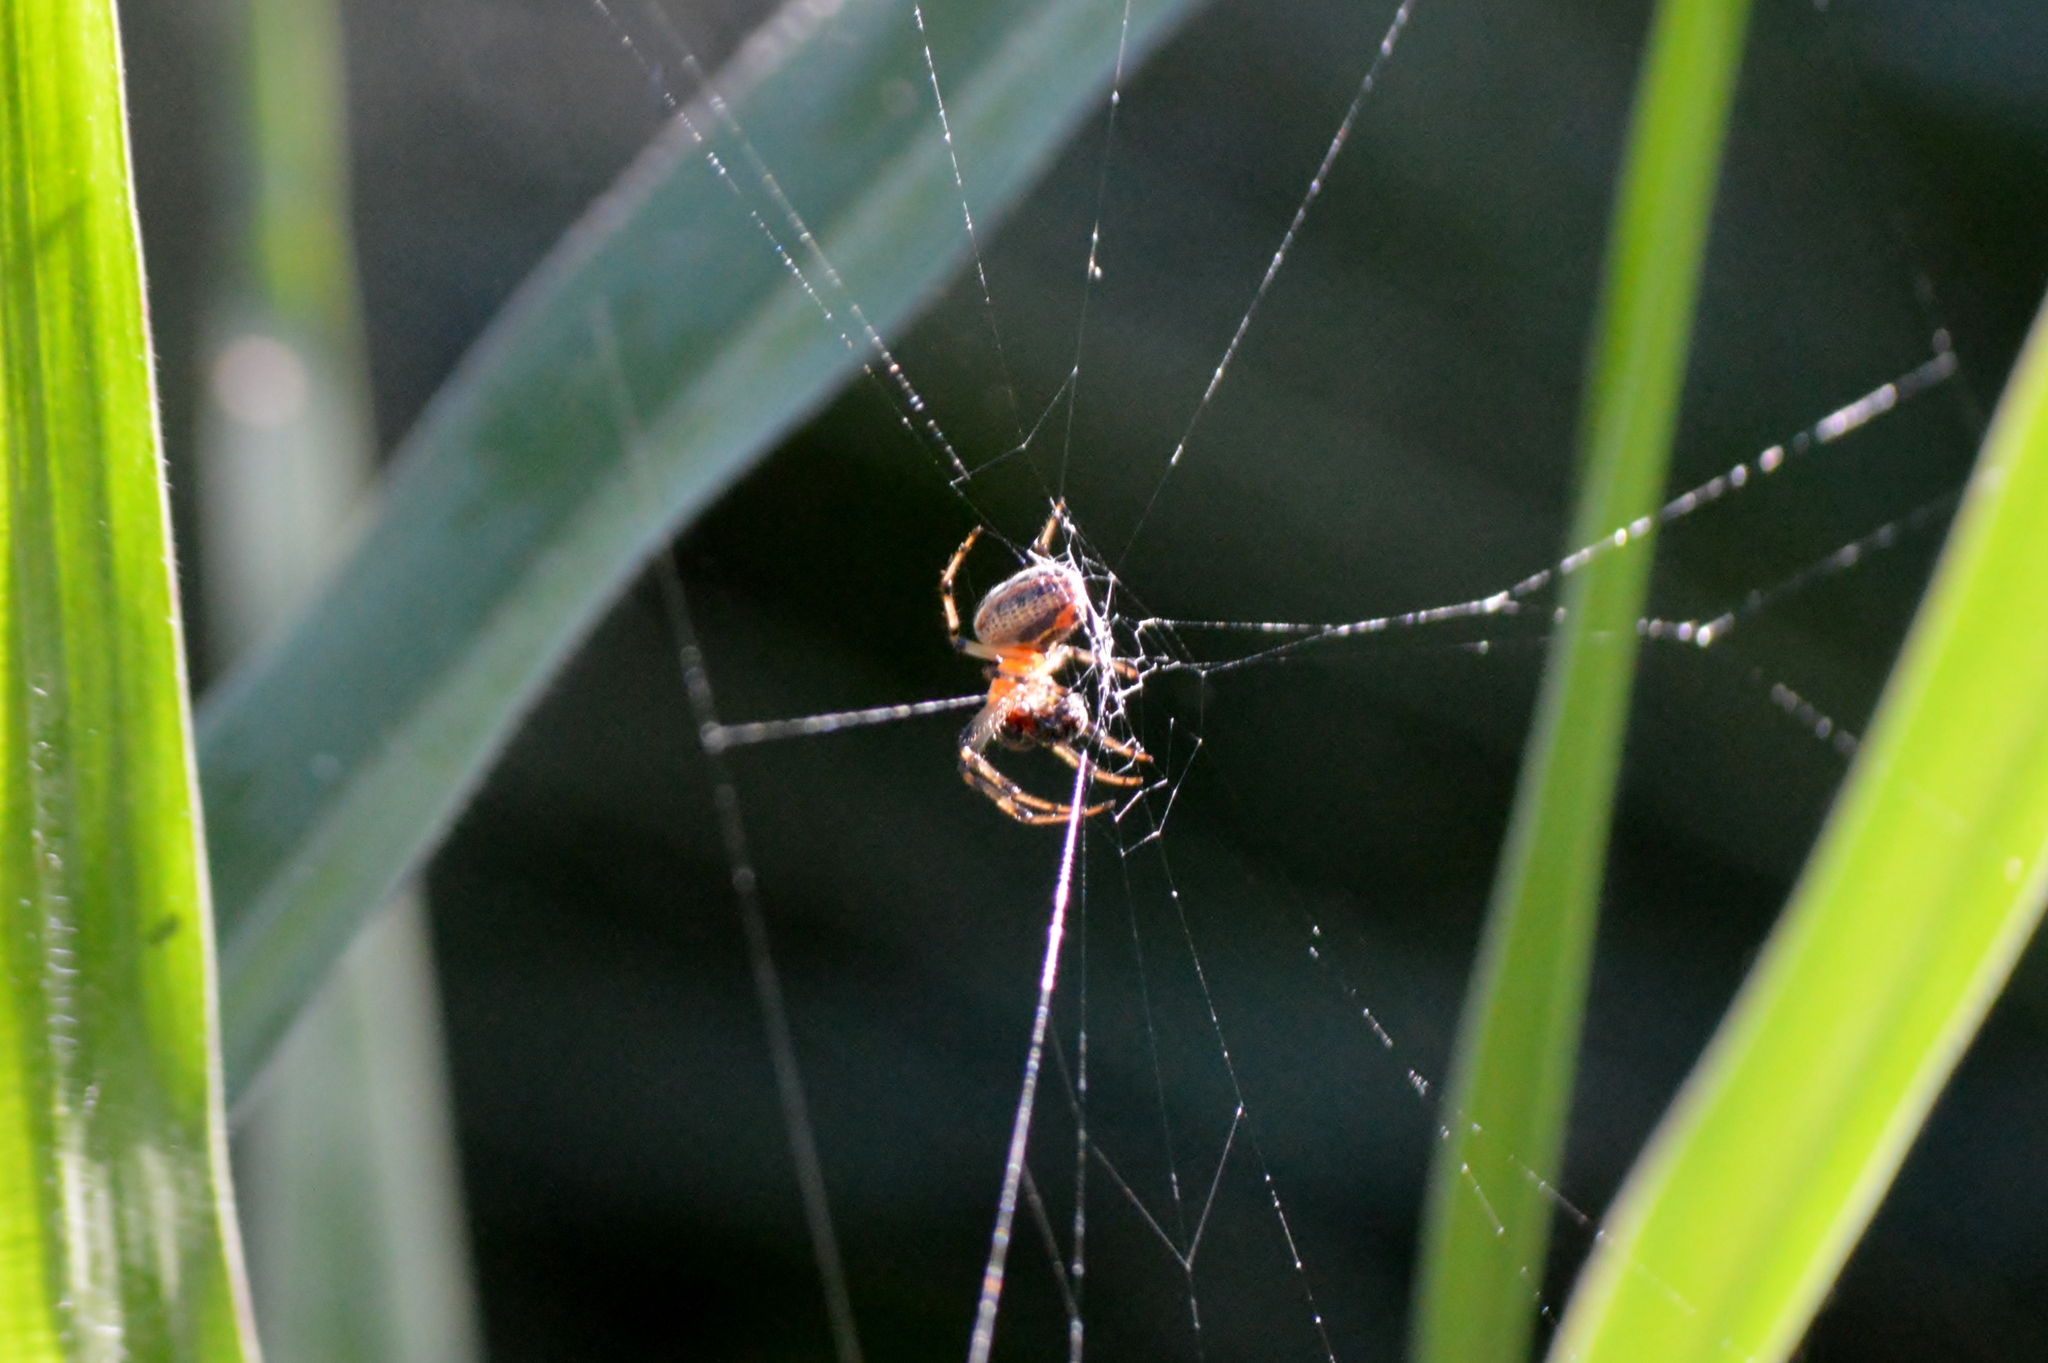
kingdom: Animalia
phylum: Arthropoda
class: Arachnida
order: Araneae
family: Araneidae
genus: Alpaida
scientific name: Alpaida veniliae
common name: Orb weavers
